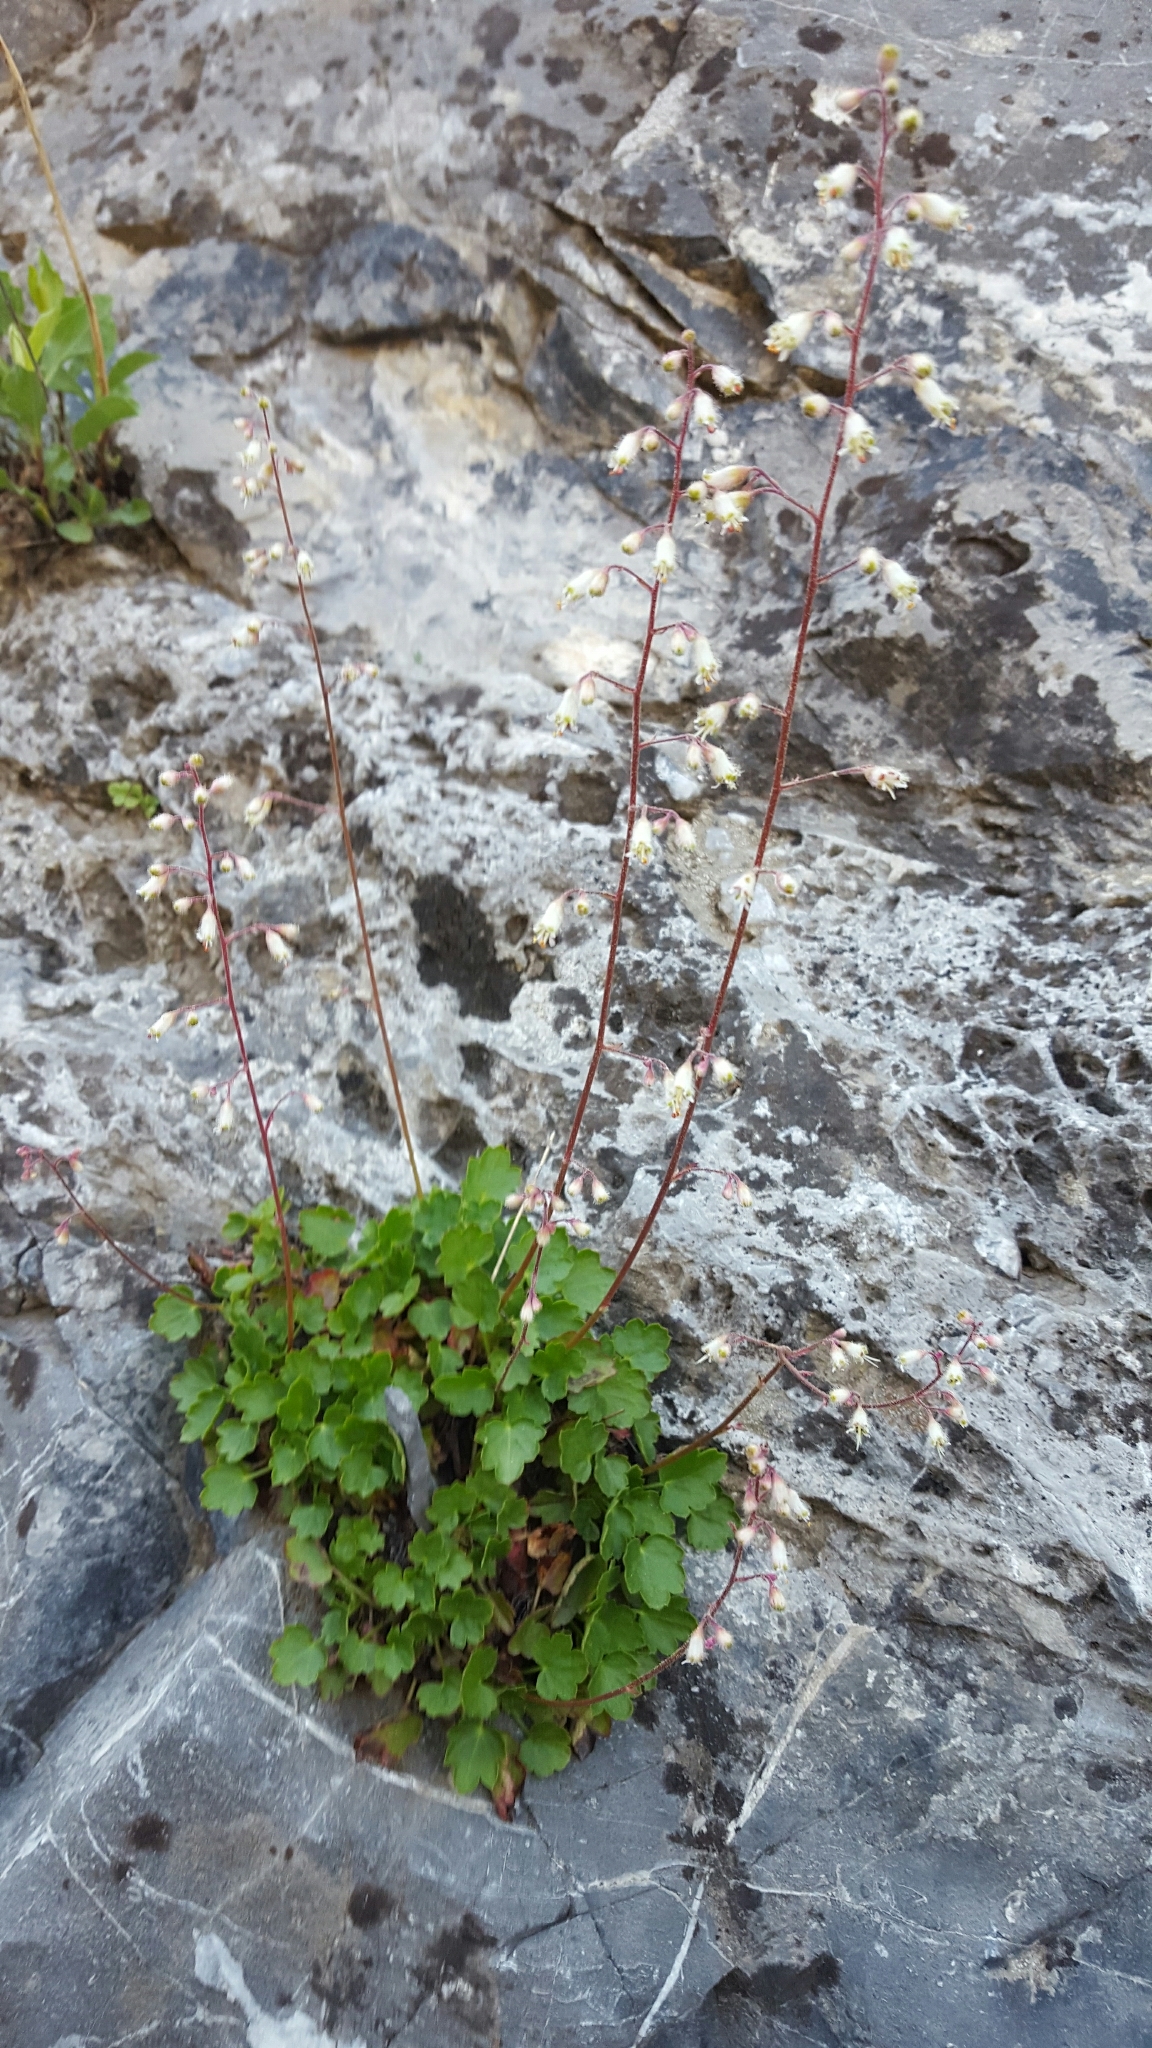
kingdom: Plantae
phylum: Tracheophyta
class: Magnoliopsida
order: Saxifragales
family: Saxifragaceae
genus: Heuchera
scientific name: Heuchera rubescens
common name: Jack-o'the-rocks
